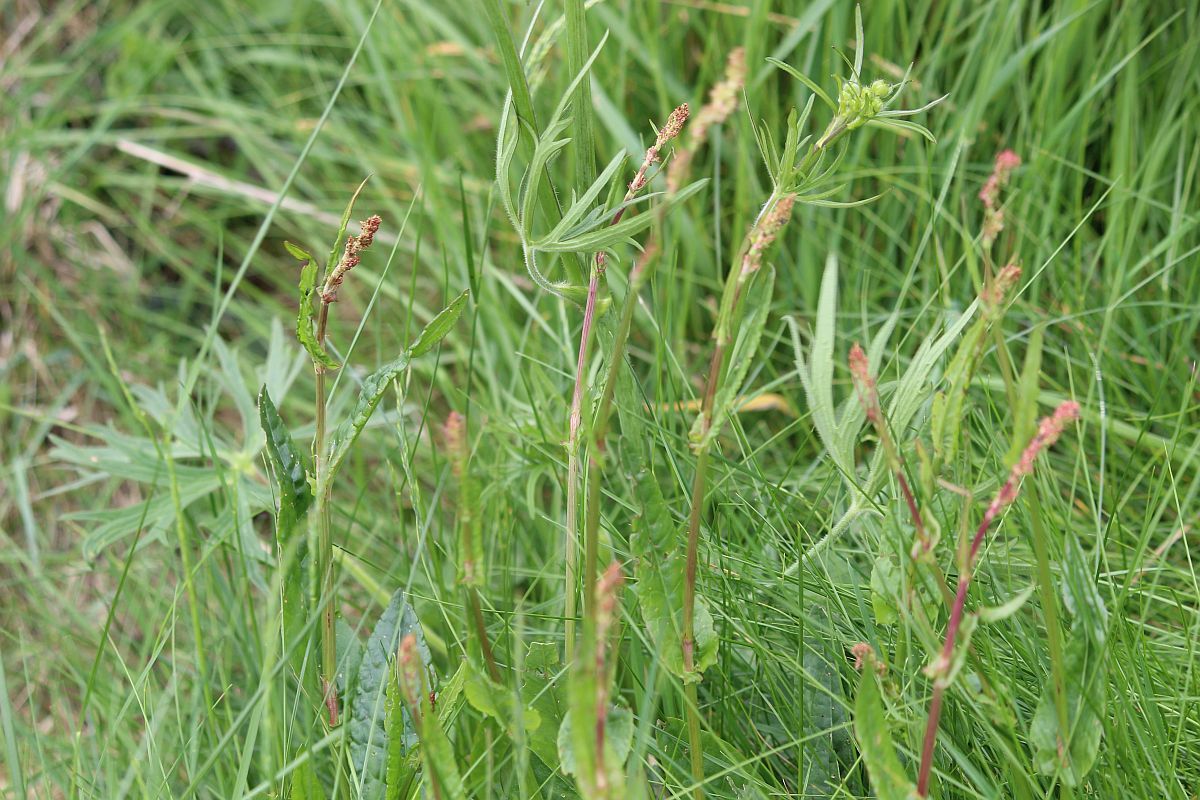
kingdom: Plantae
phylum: Tracheophyta
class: Magnoliopsida
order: Caryophyllales
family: Polygonaceae
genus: Rumex
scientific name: Rumex acetosa
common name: Garden sorrel
